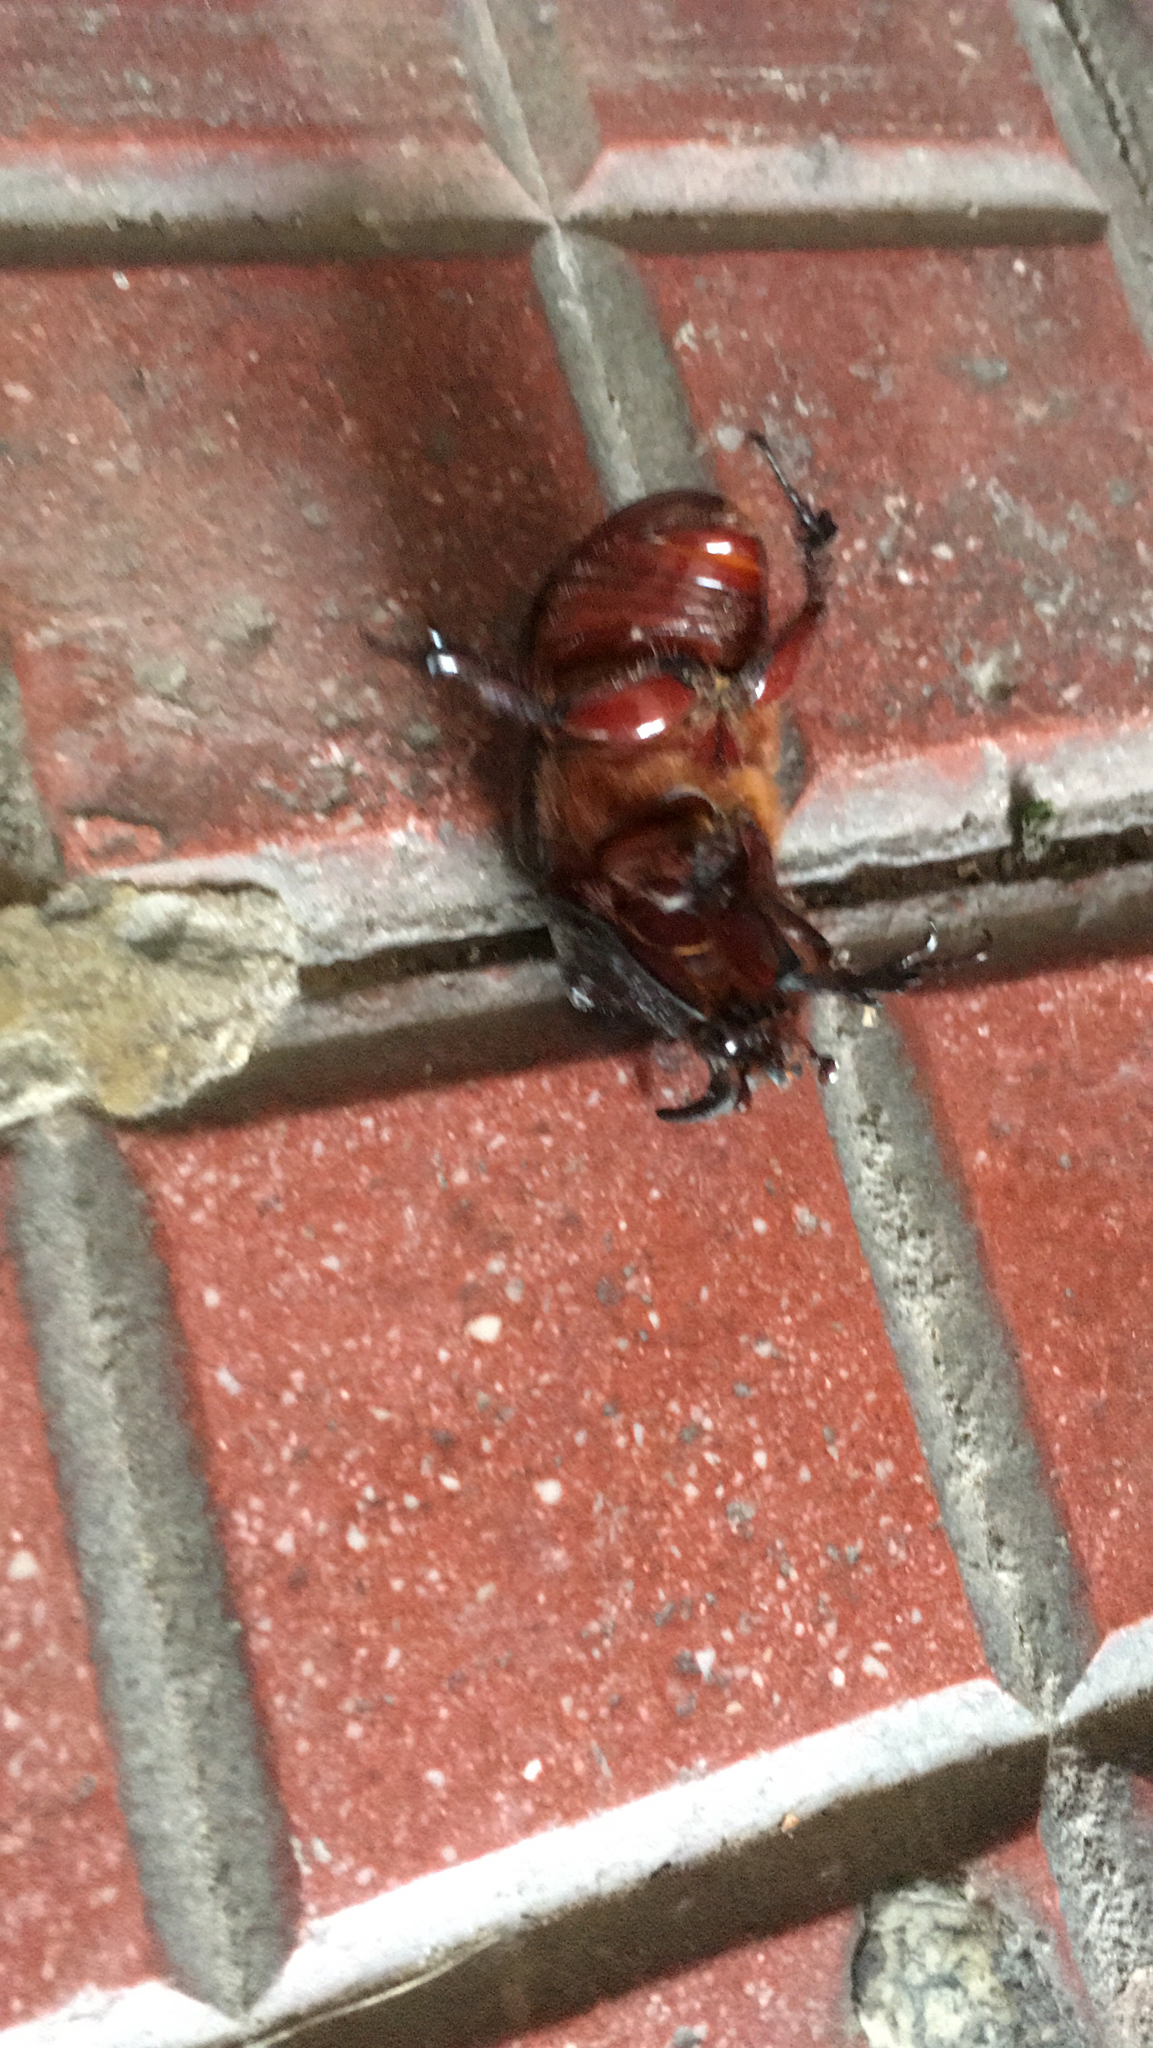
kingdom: Animalia
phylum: Arthropoda
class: Insecta
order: Coleoptera
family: Scarabaeidae
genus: Oryctes
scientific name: Oryctes nasicornis
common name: European rhinoceros beetle
